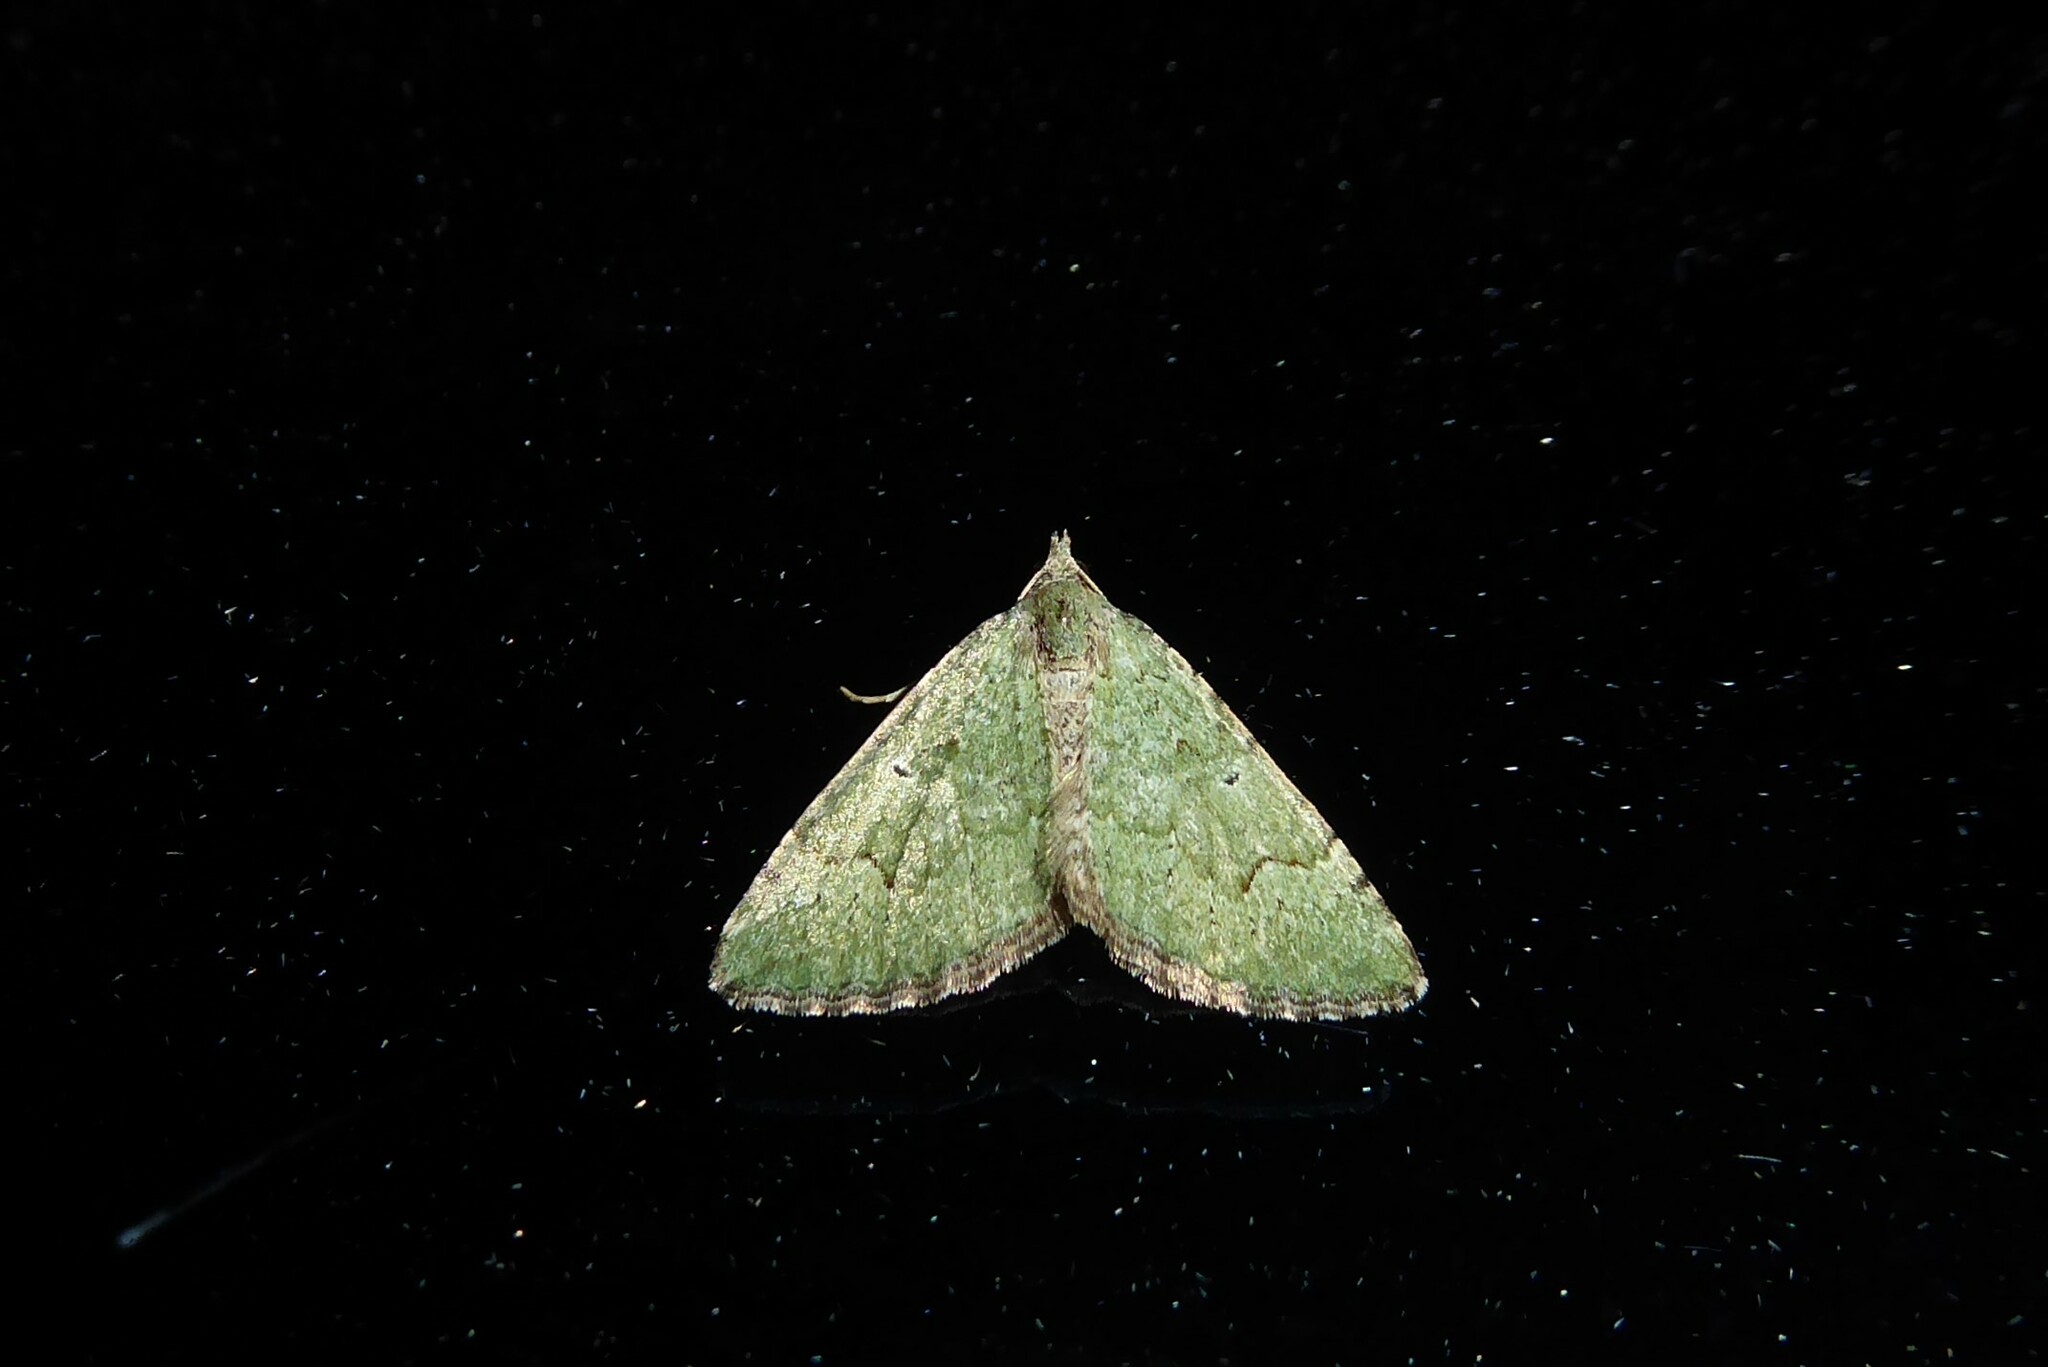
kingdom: Animalia
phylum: Arthropoda
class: Insecta
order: Lepidoptera
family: Geometridae
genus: Epyaxa
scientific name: Epyaxa rosearia
